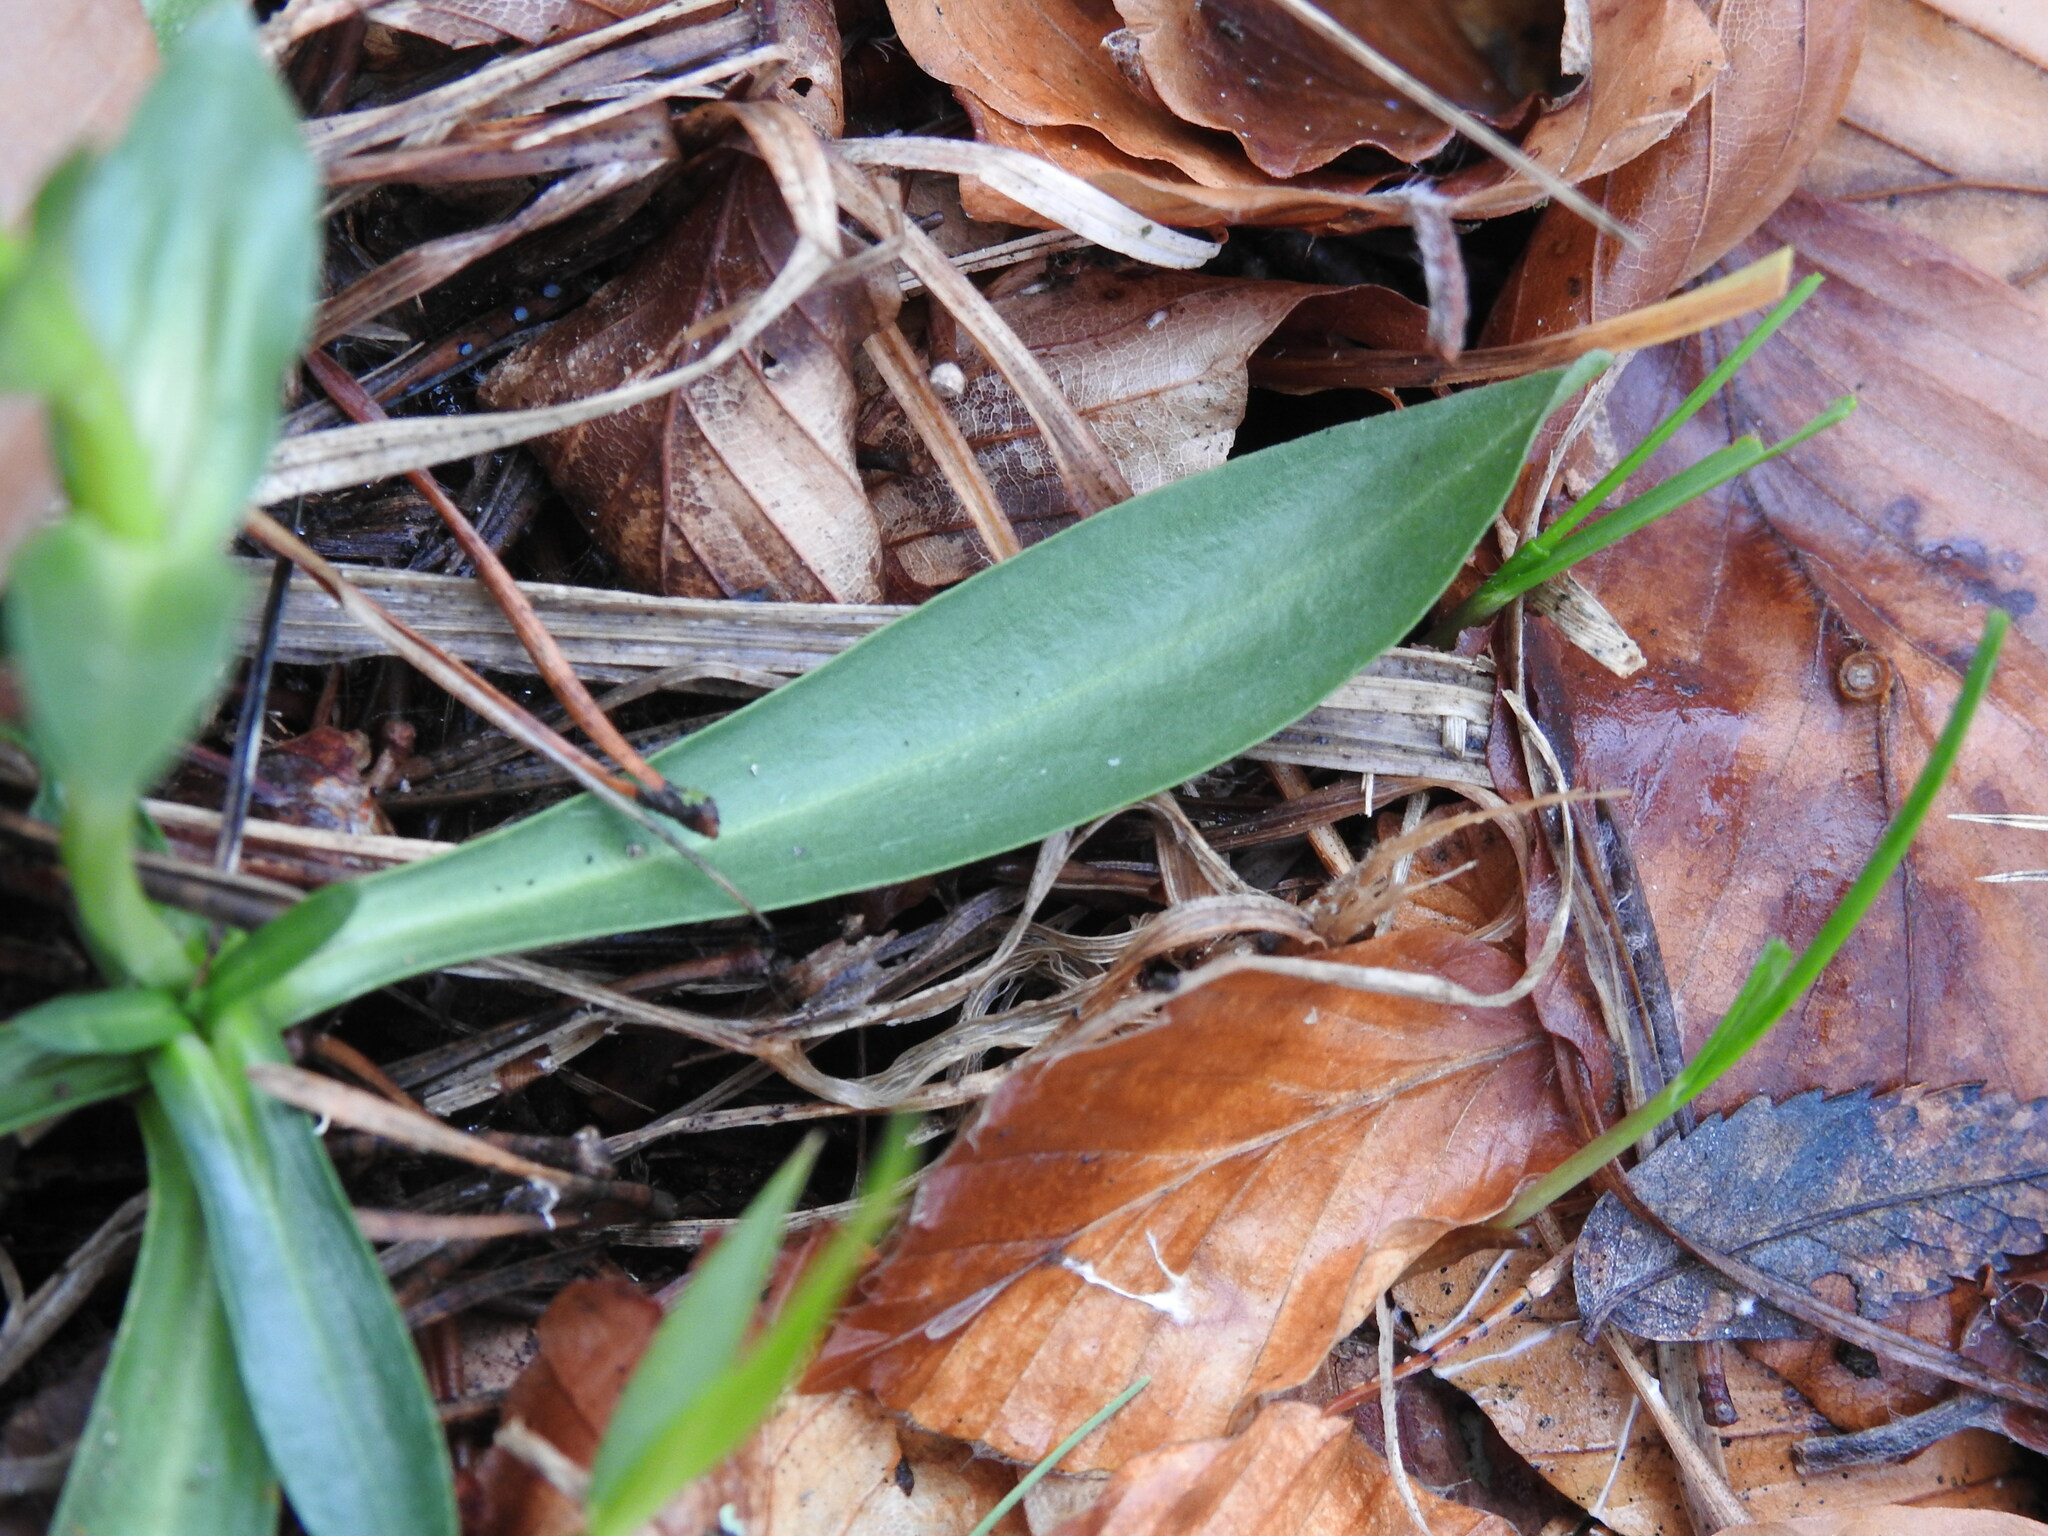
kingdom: Plantae
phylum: Tracheophyta
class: Magnoliopsida
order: Gentianales
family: Gentianaceae
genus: Gentiana
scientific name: Gentiana angustifolia
